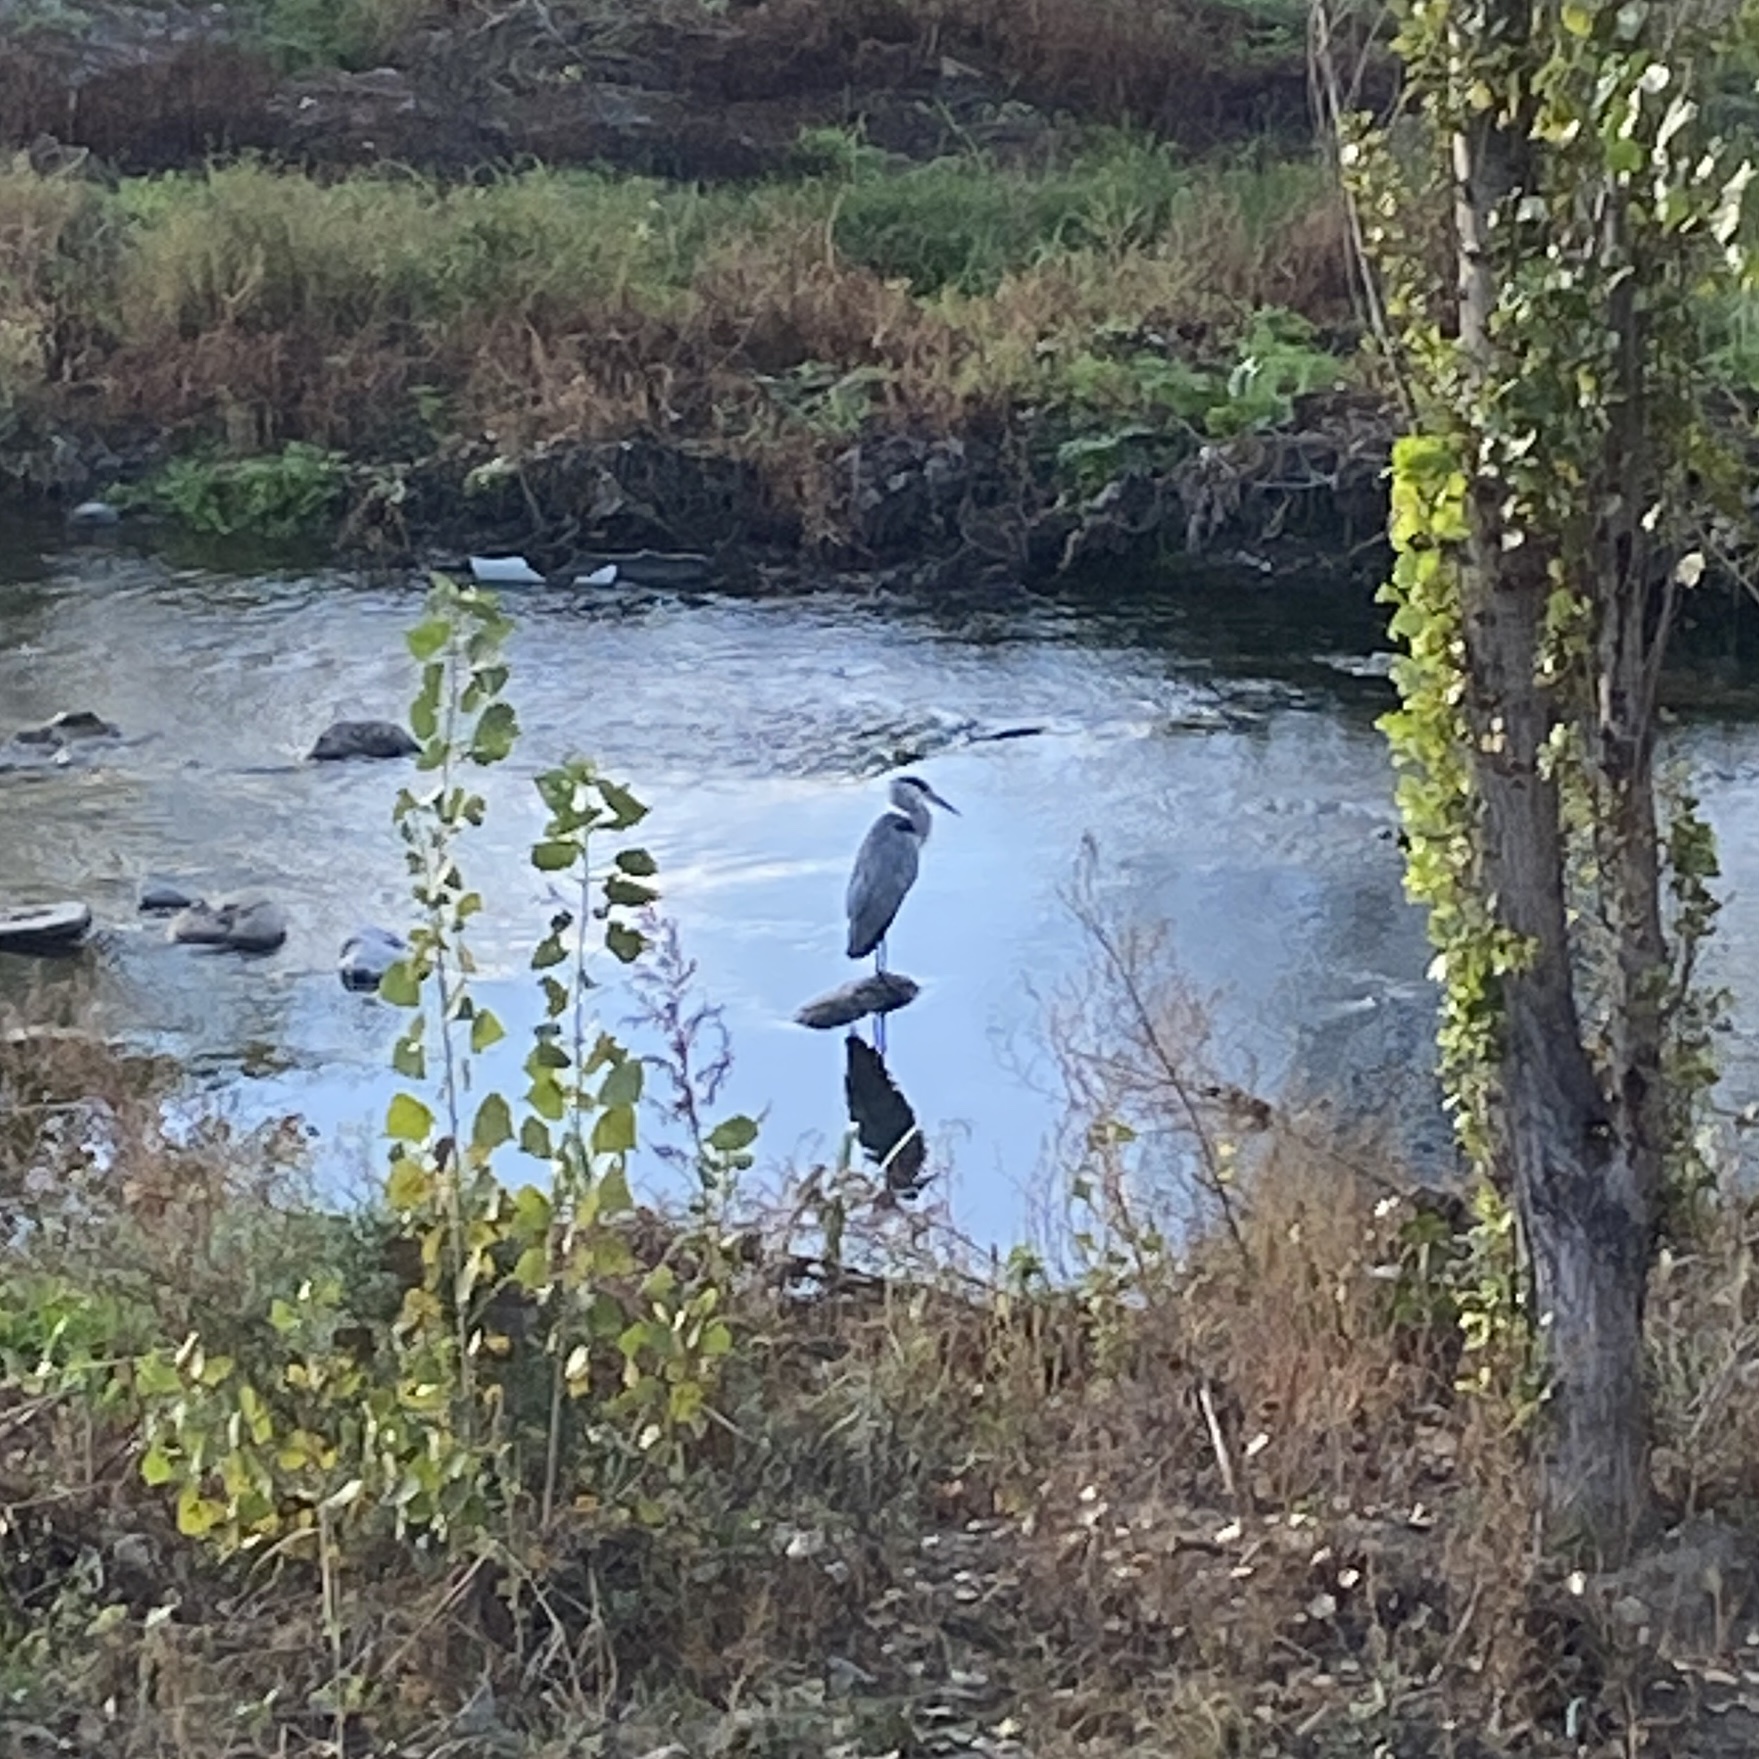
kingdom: Animalia
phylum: Chordata
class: Aves
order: Pelecaniformes
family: Ardeidae
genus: Ardea
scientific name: Ardea cinerea
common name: Grey heron
